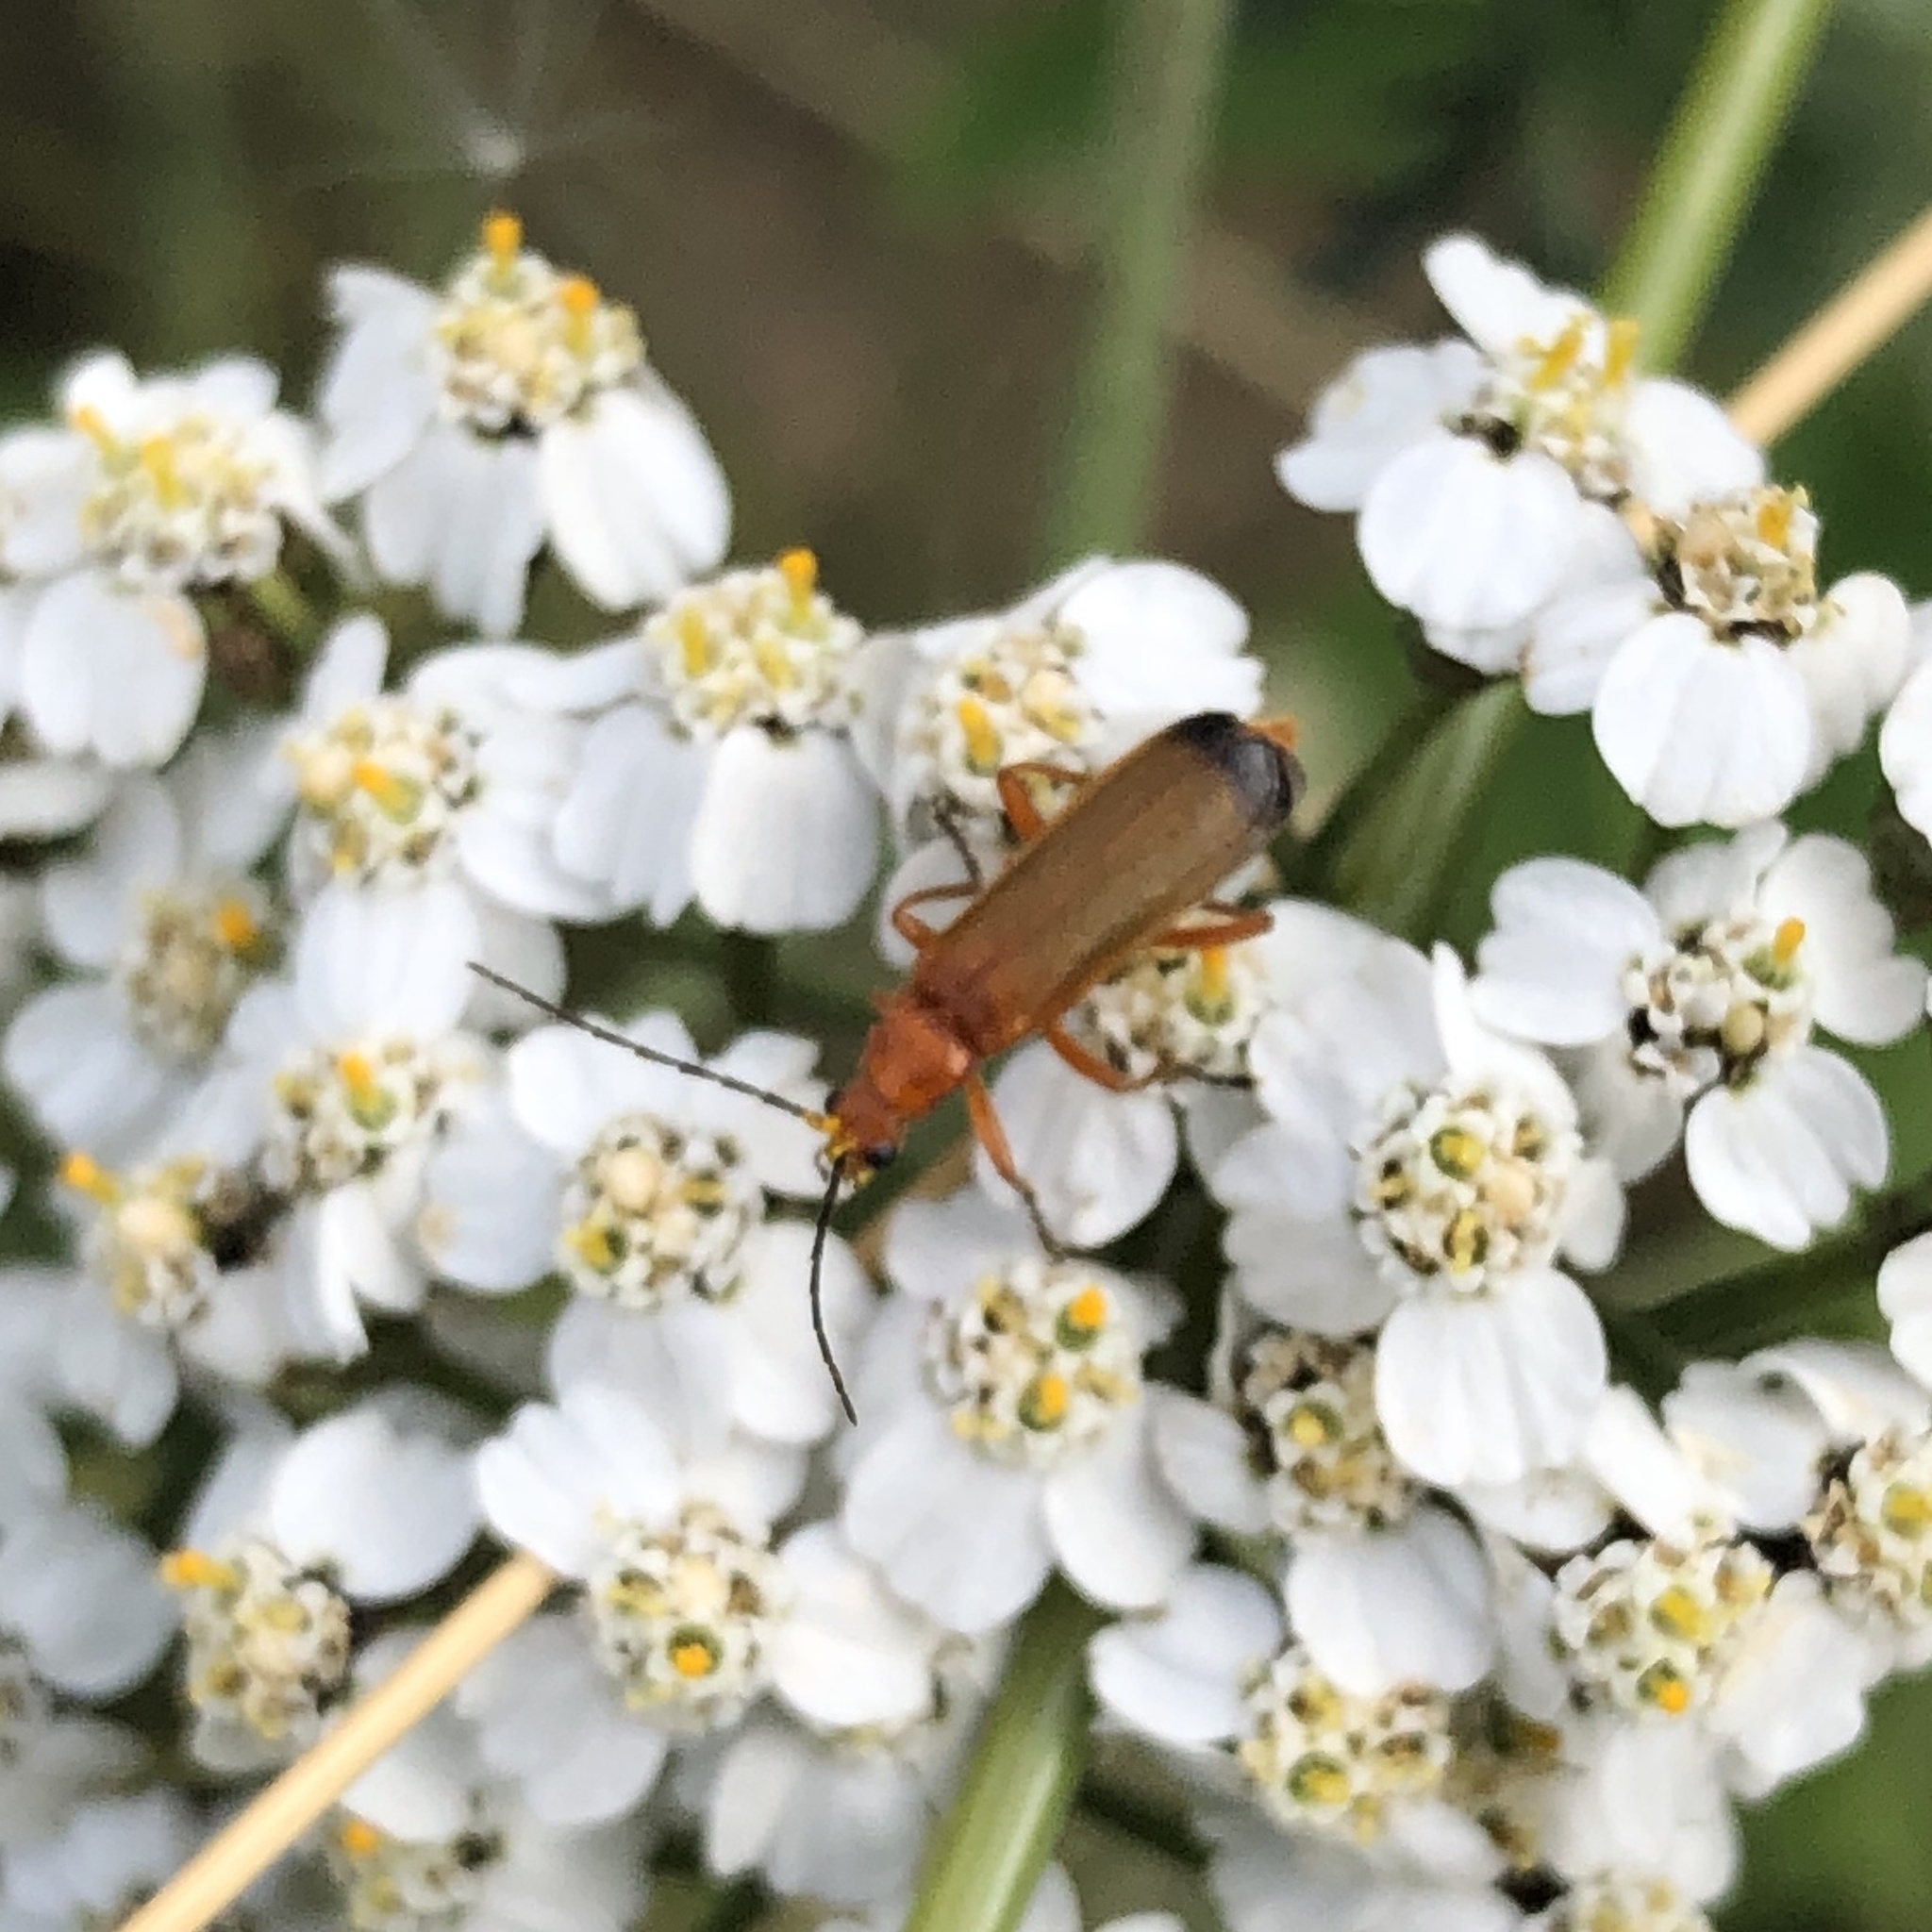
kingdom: Animalia
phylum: Arthropoda
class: Insecta
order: Coleoptera
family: Cantharidae
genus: Rhagonycha
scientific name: Rhagonycha fulva
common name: Common red soldier beetle
